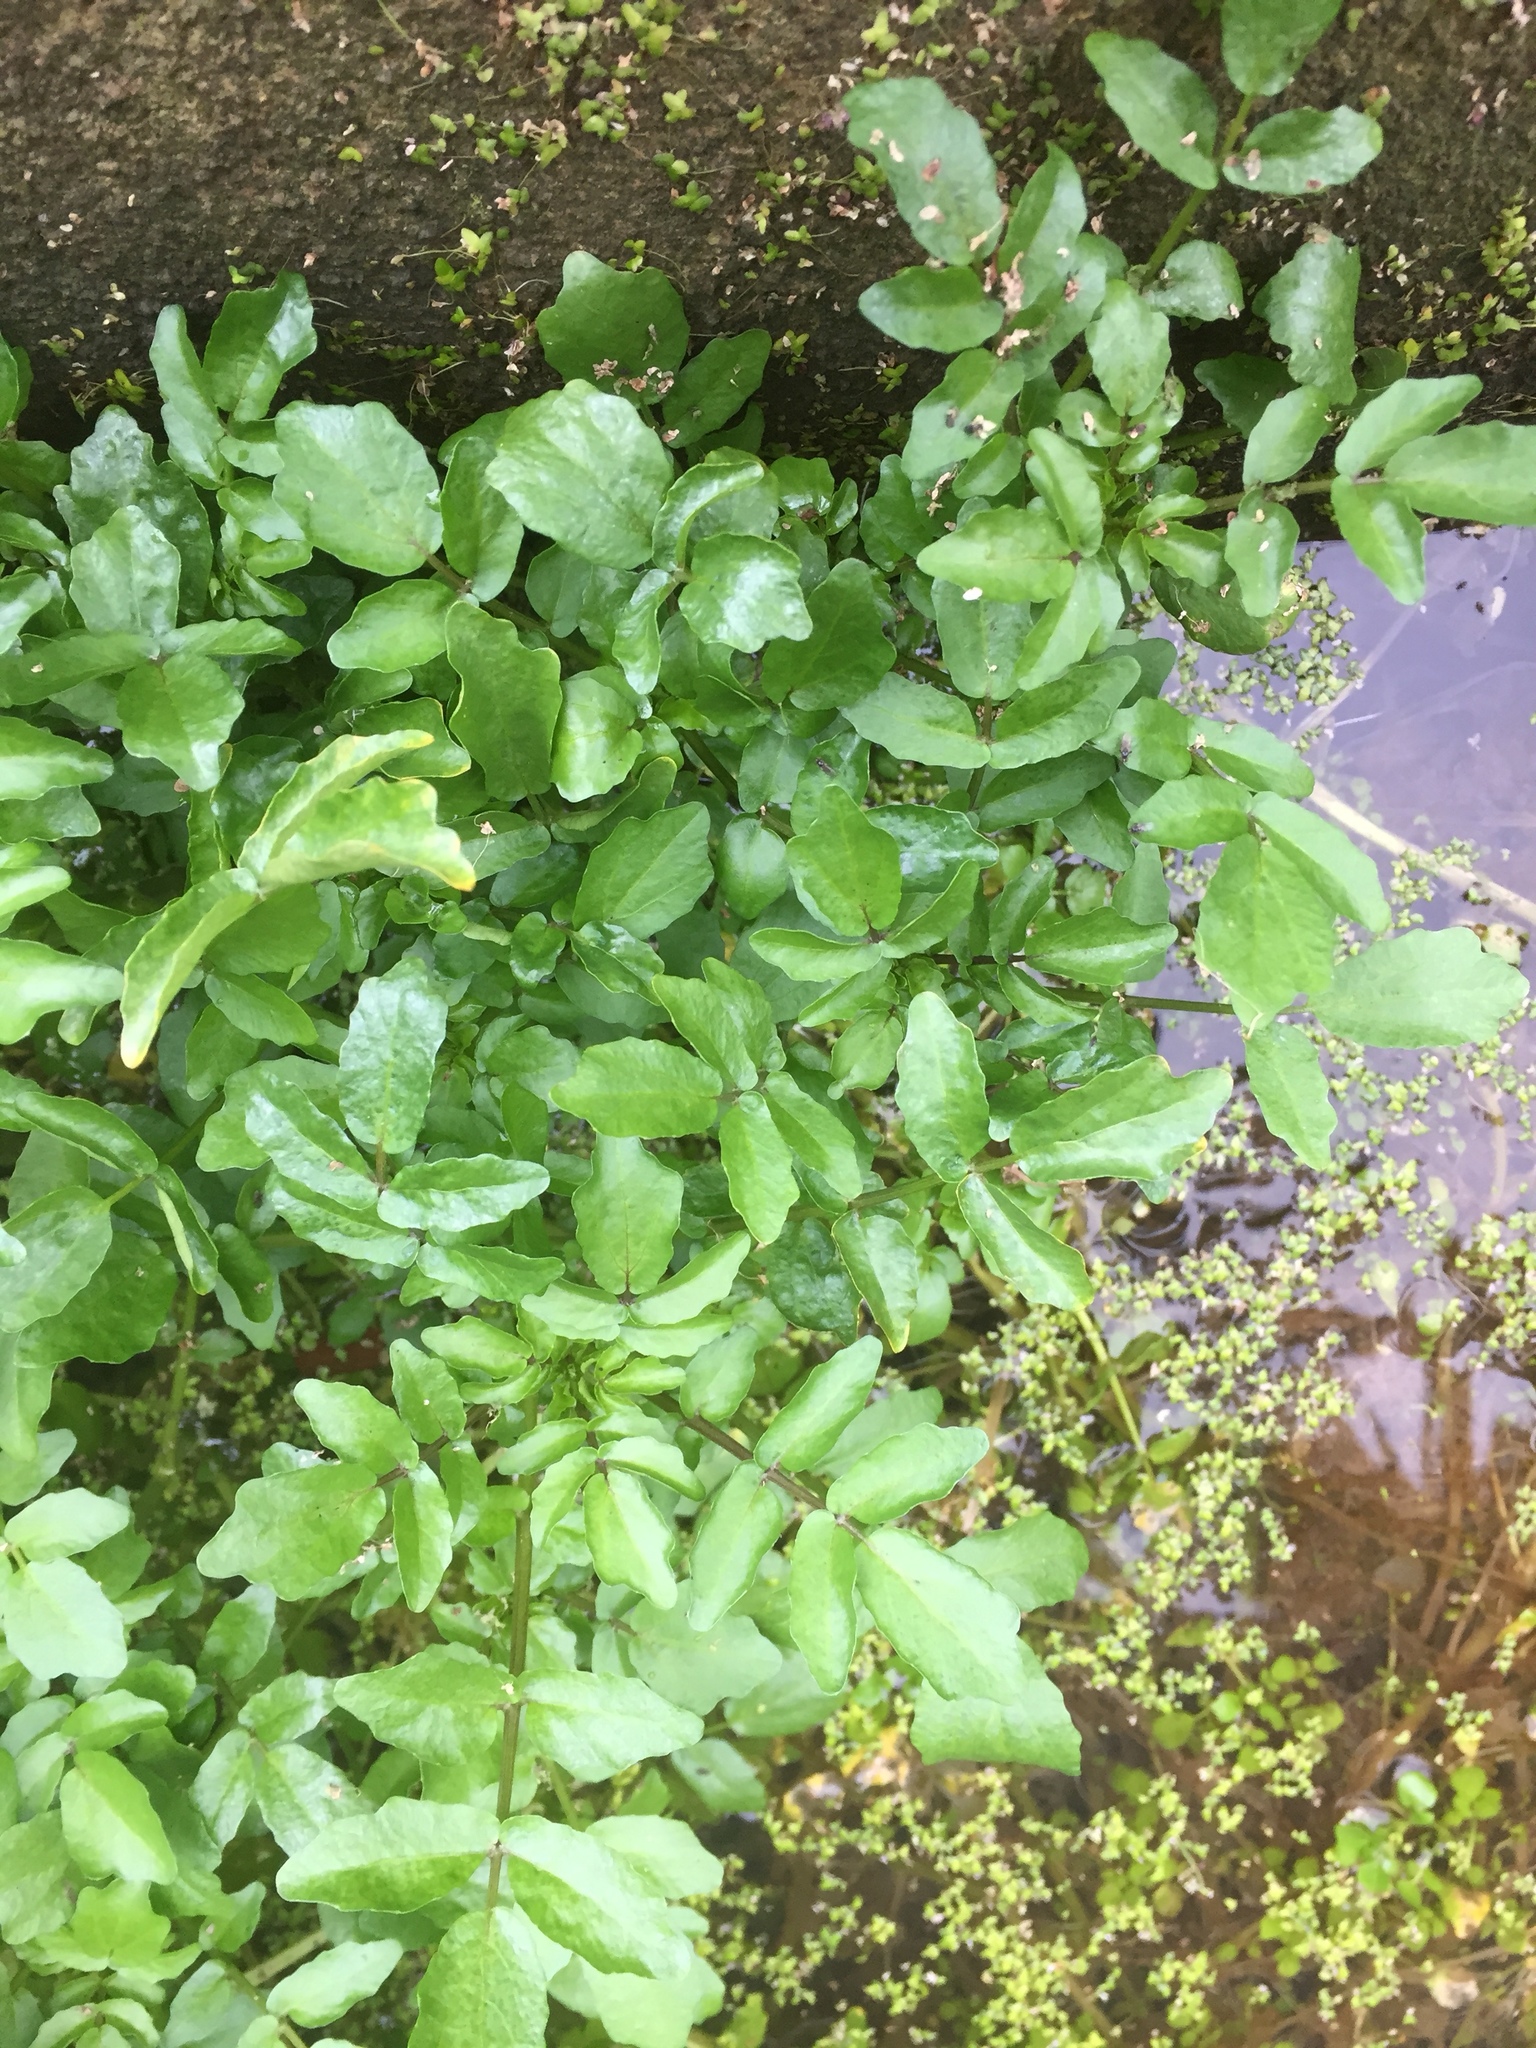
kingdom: Plantae
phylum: Tracheophyta
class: Magnoliopsida
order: Brassicales
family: Brassicaceae
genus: Nasturtium
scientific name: Nasturtium officinale
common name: Watercress
